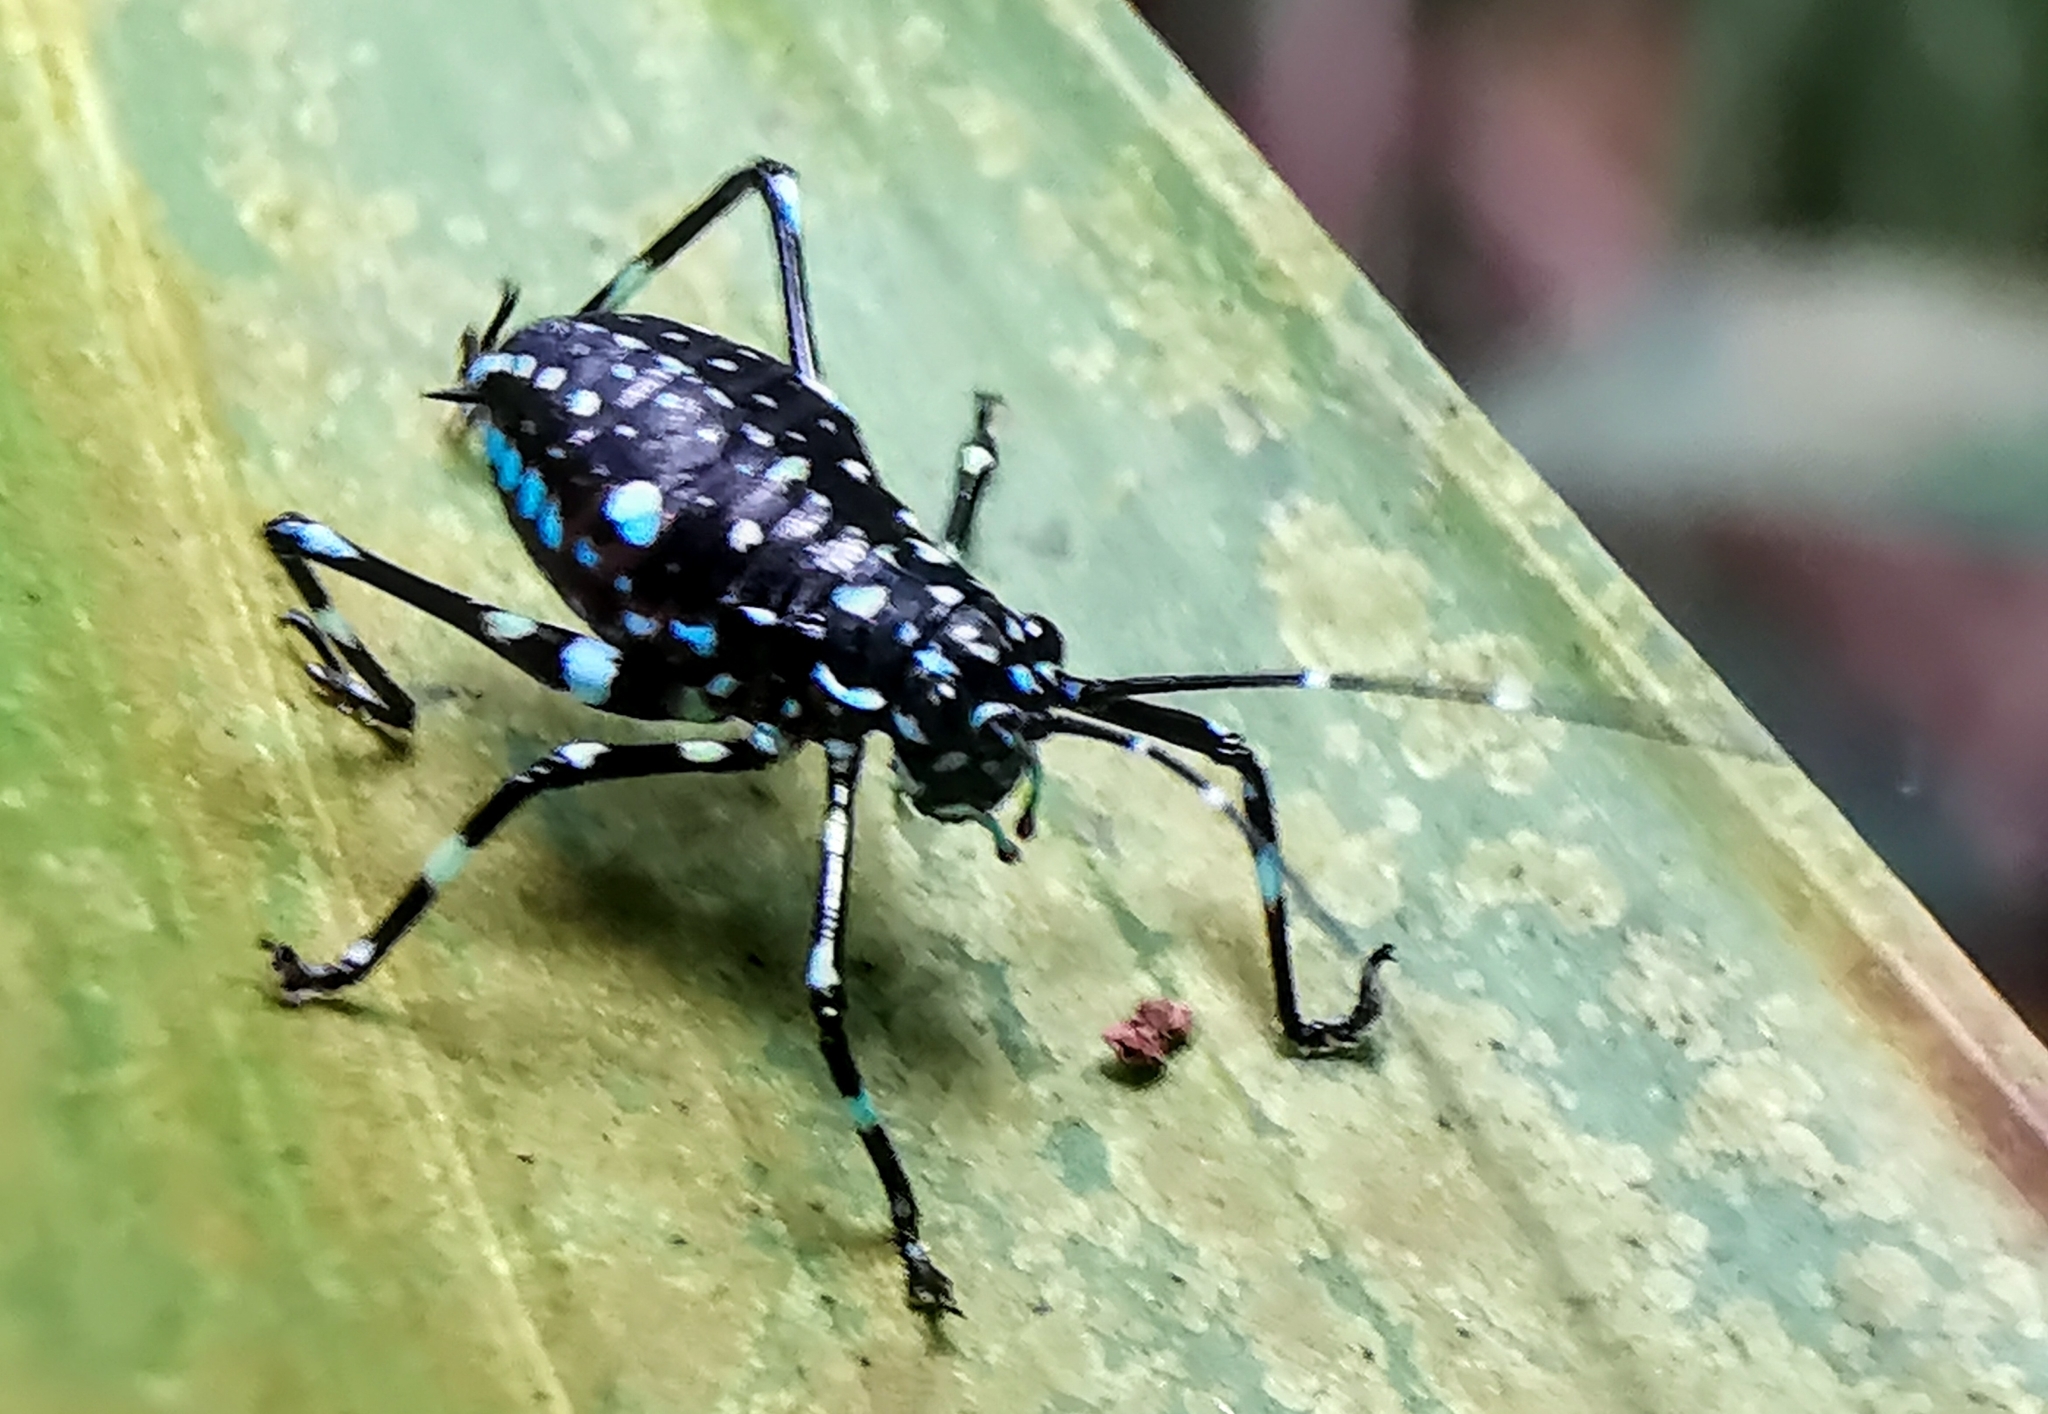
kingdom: Animalia
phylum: Arthropoda
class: Insecta
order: Orthoptera
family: Tettigoniidae
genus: Scambophyllum
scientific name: Scambophyllum sanguinolentum
